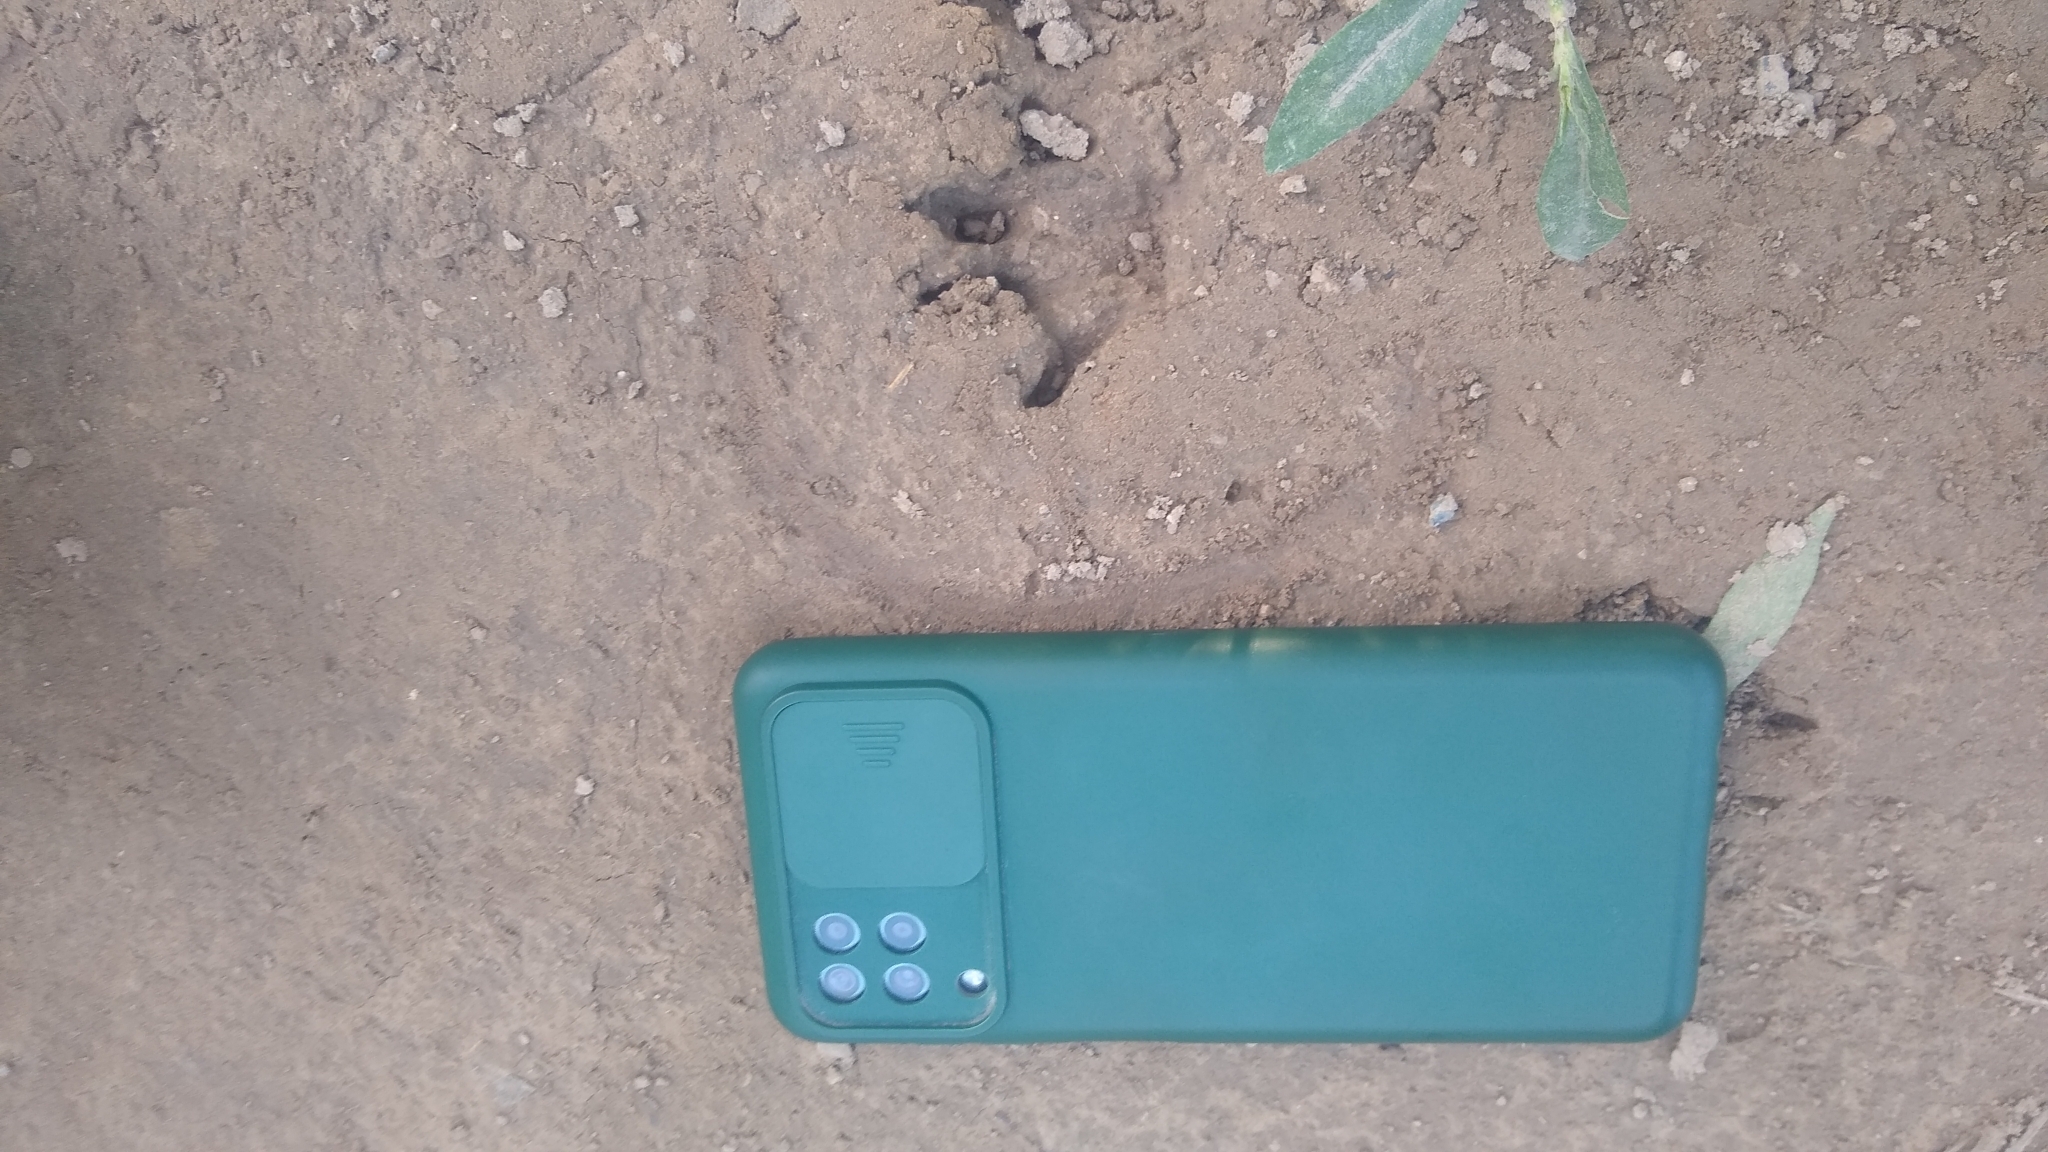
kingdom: Animalia
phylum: Chordata
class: Mammalia
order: Carnivora
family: Procyonidae
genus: Procyon
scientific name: Procyon cancrivorus
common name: Crab-eating raccoon
